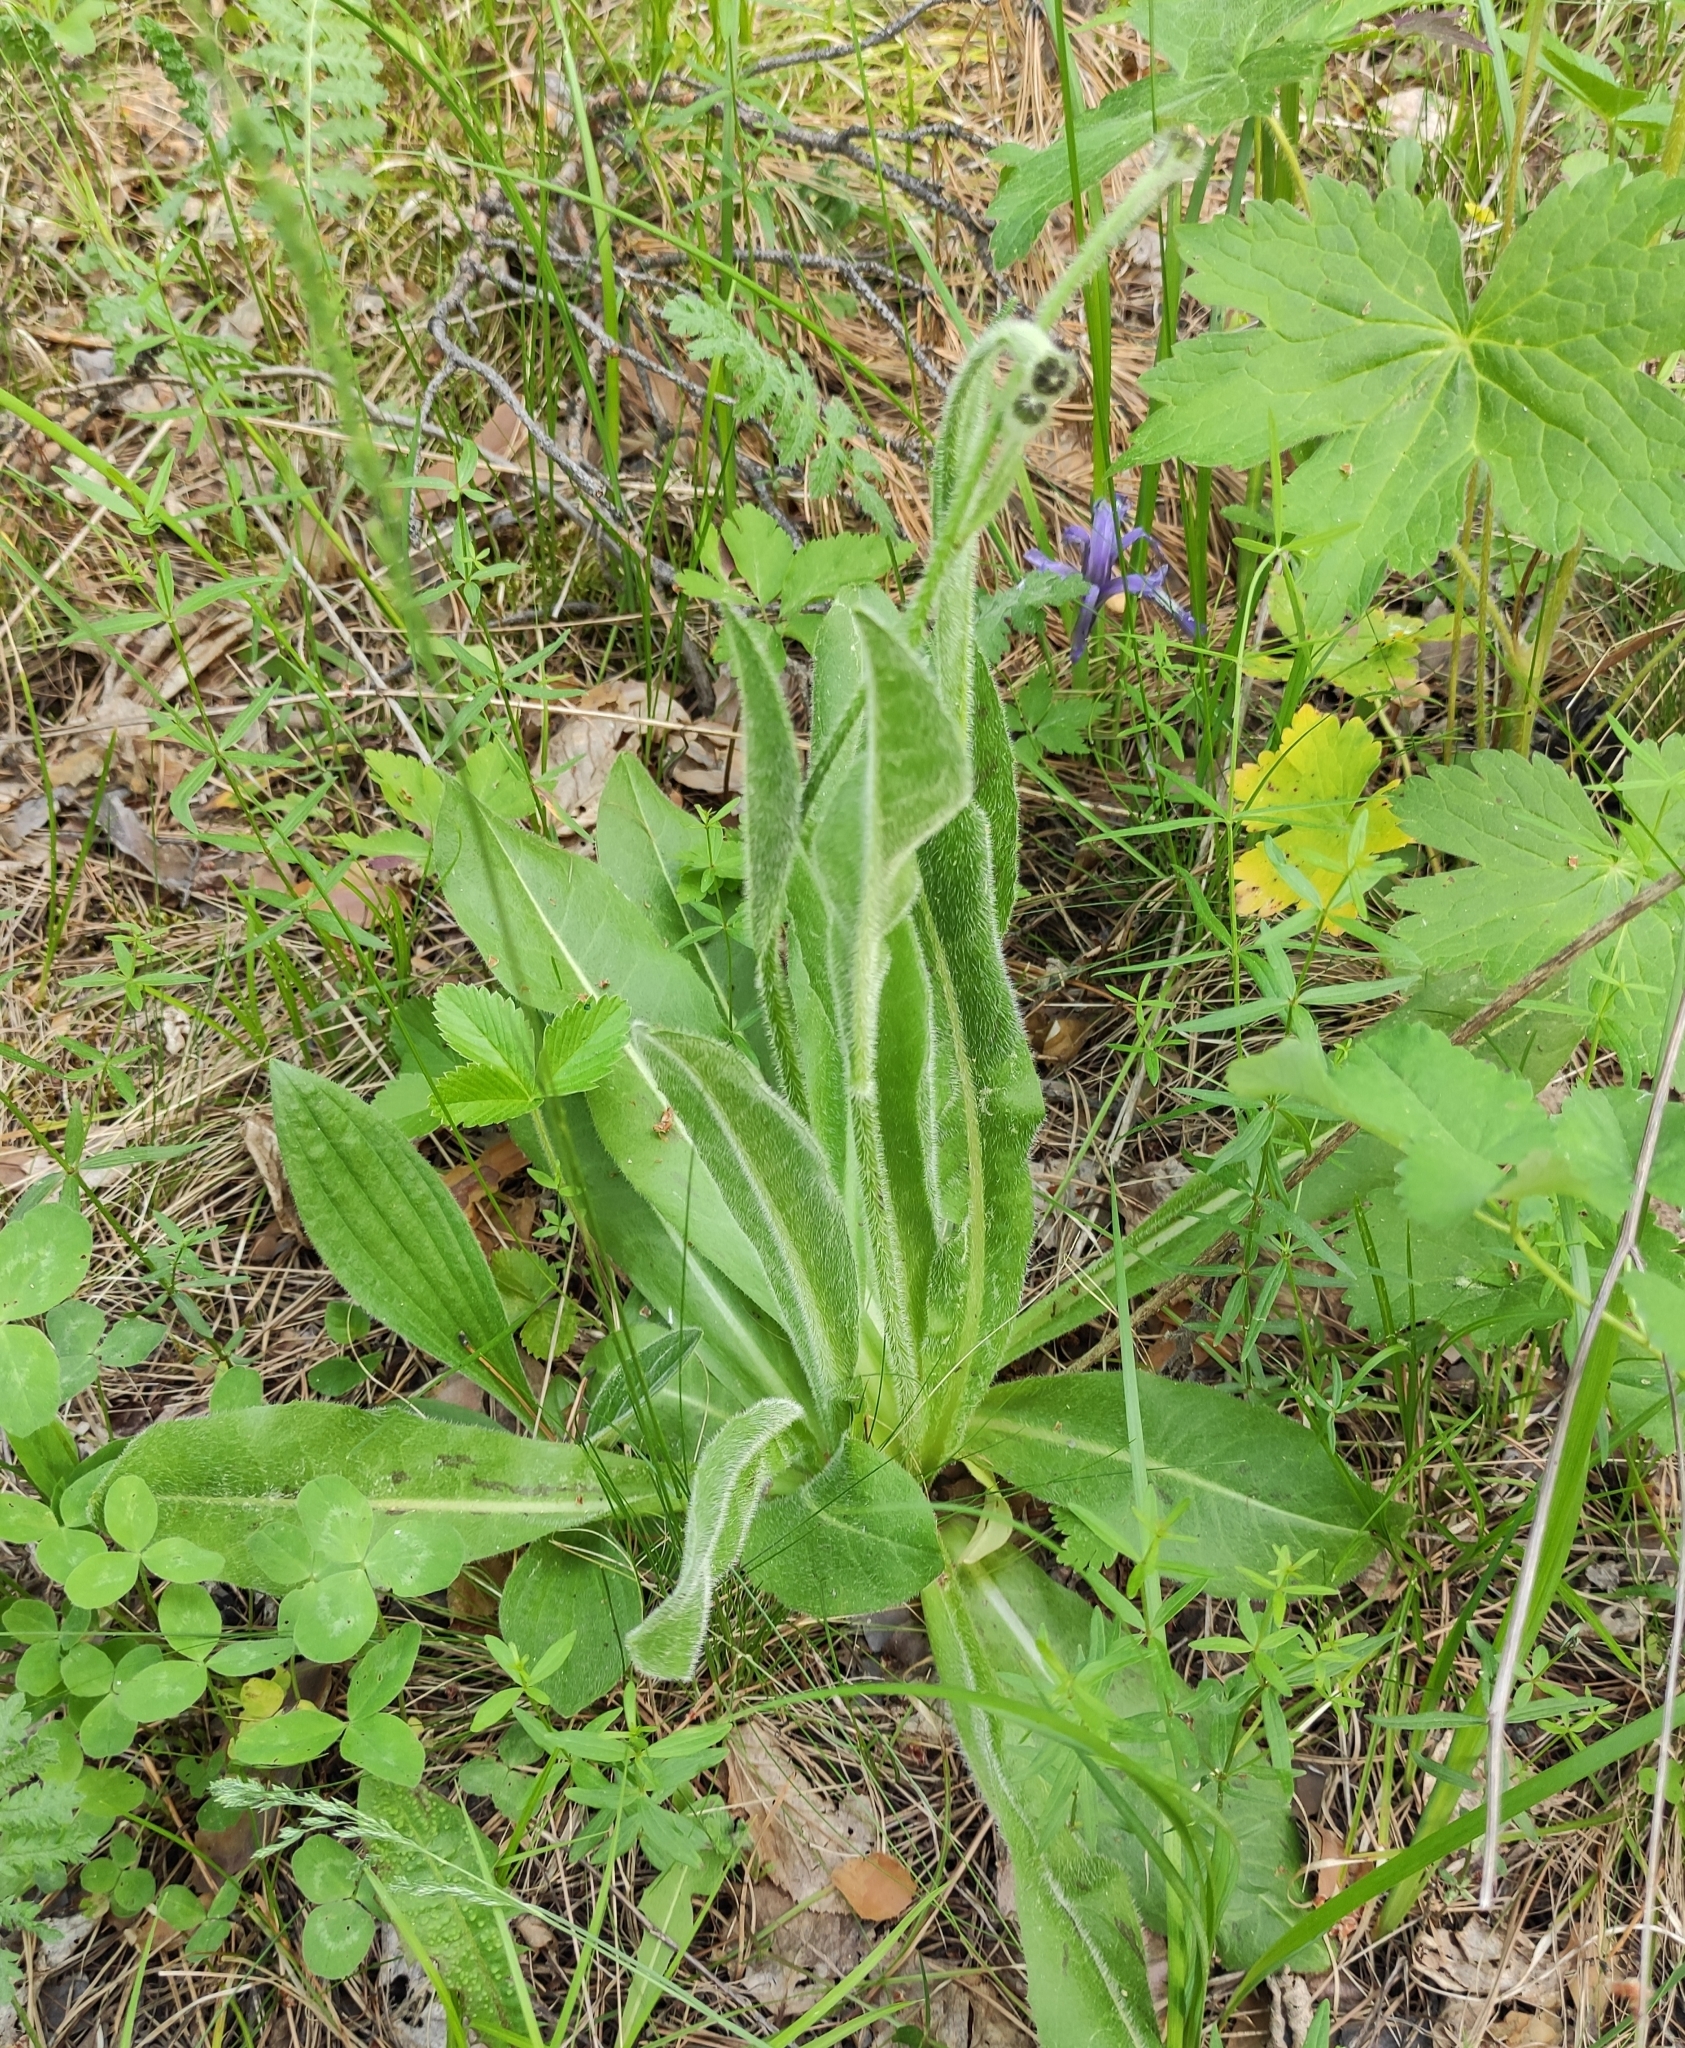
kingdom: Plantae
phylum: Tracheophyta
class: Magnoliopsida
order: Asterales
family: Asteraceae
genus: Trommsdorffia
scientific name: Trommsdorffia maculata
